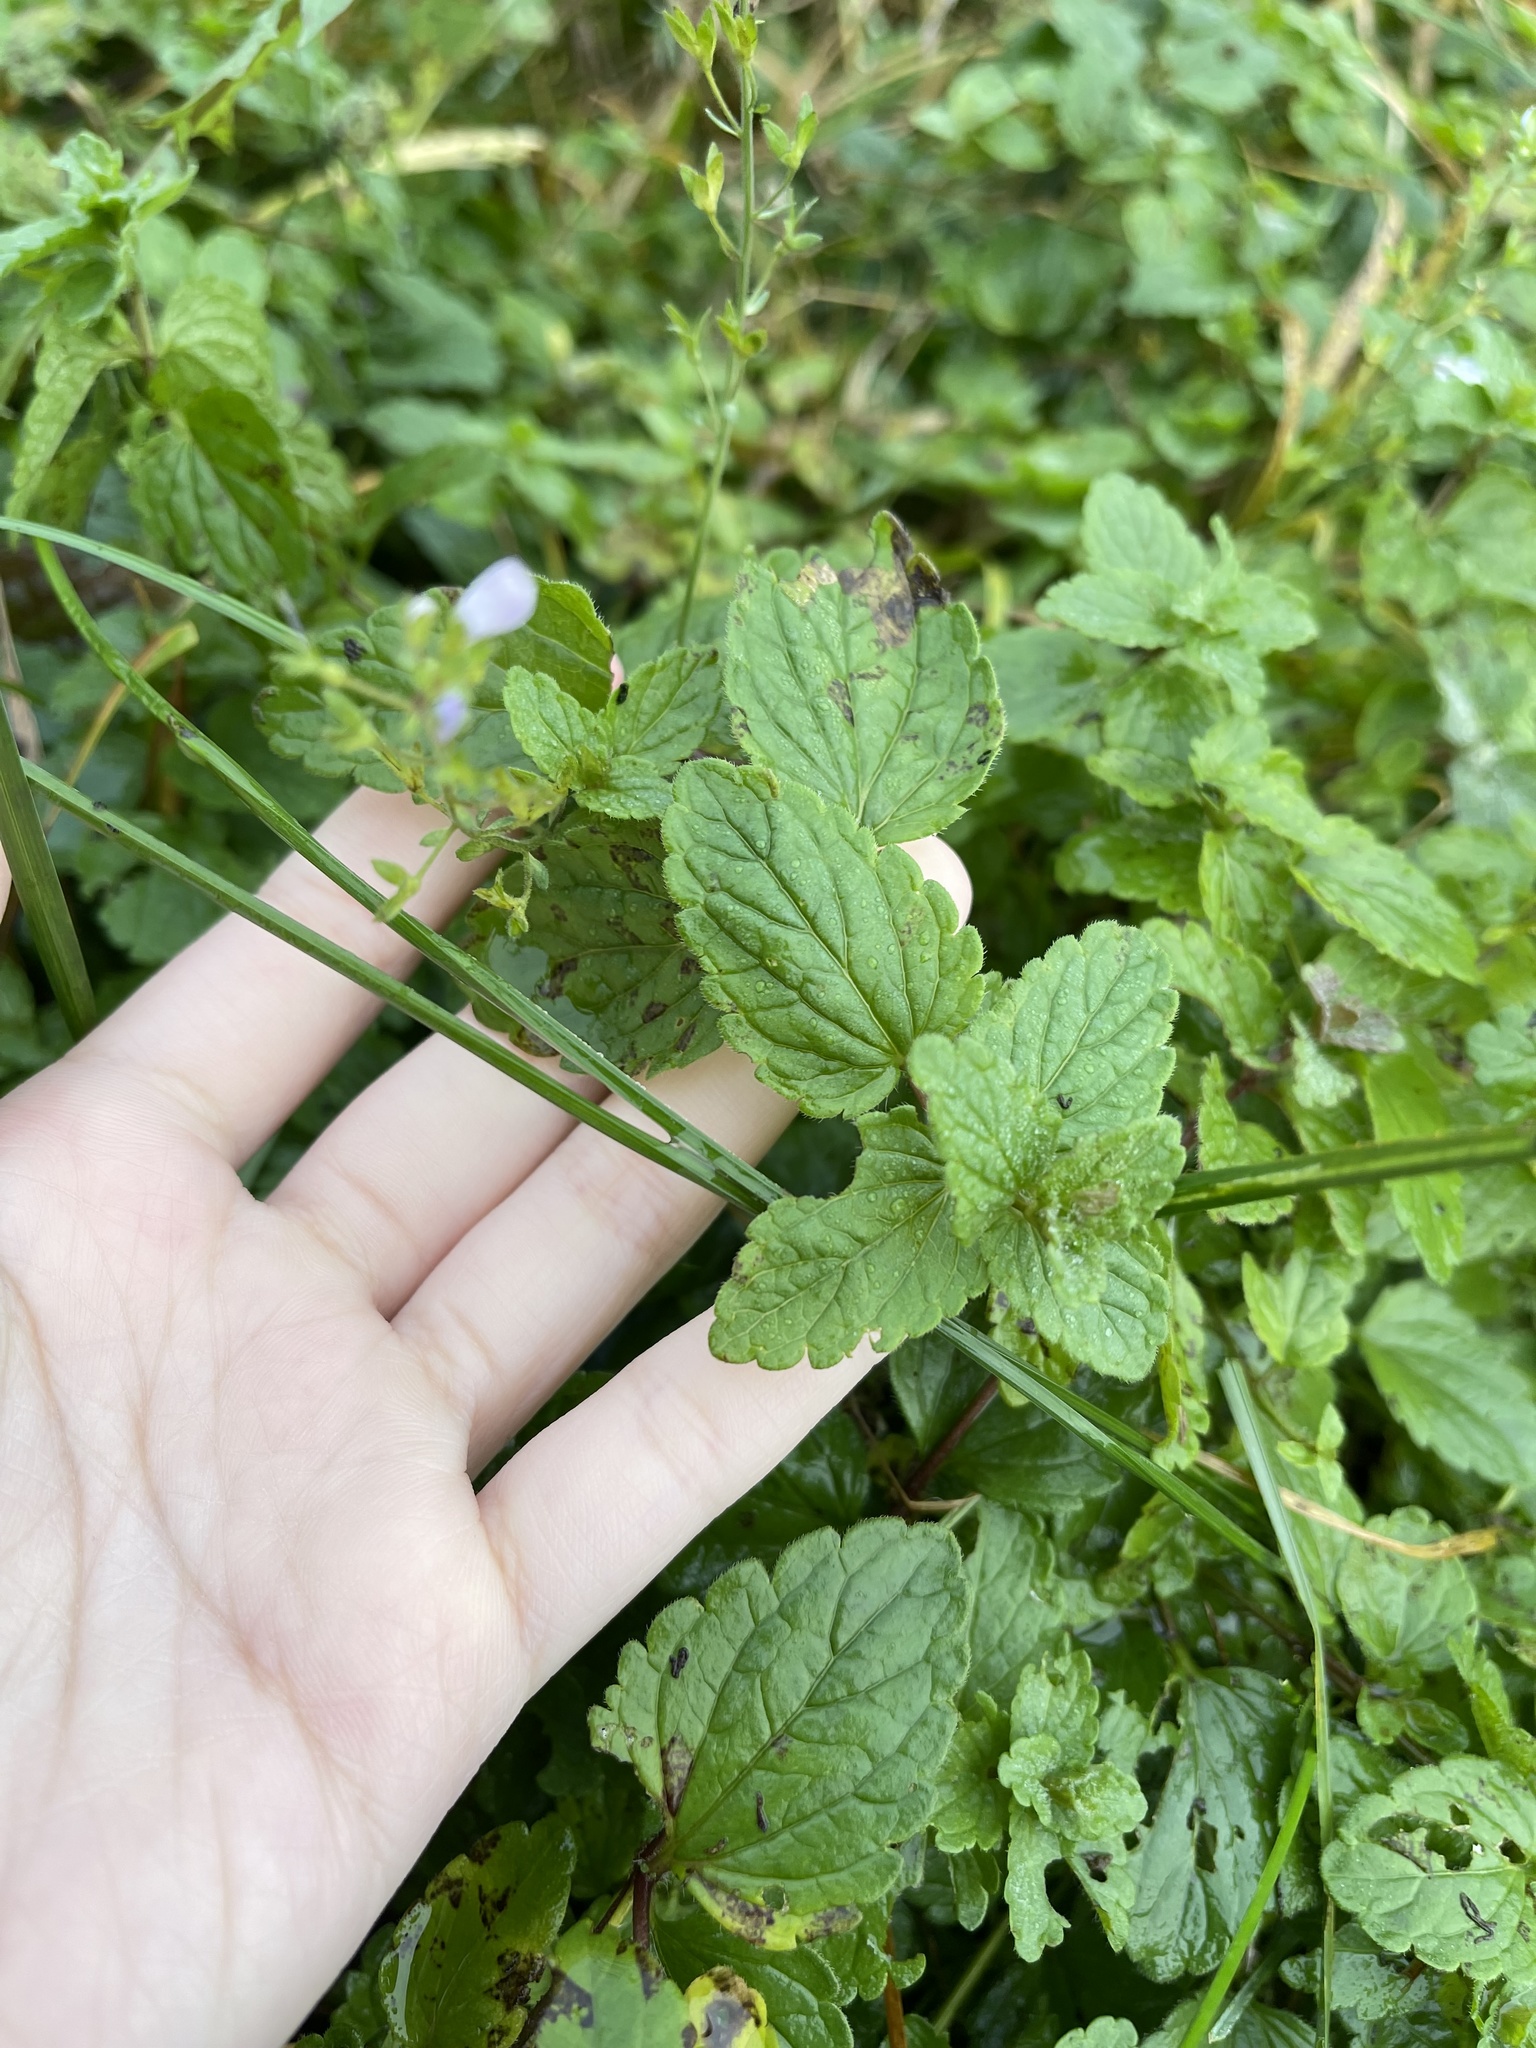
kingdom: Plantae
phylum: Tracheophyta
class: Magnoliopsida
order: Lamiales
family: Plantaginaceae
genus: Veronica
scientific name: Veronica chamaedrys
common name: Germander speedwell
